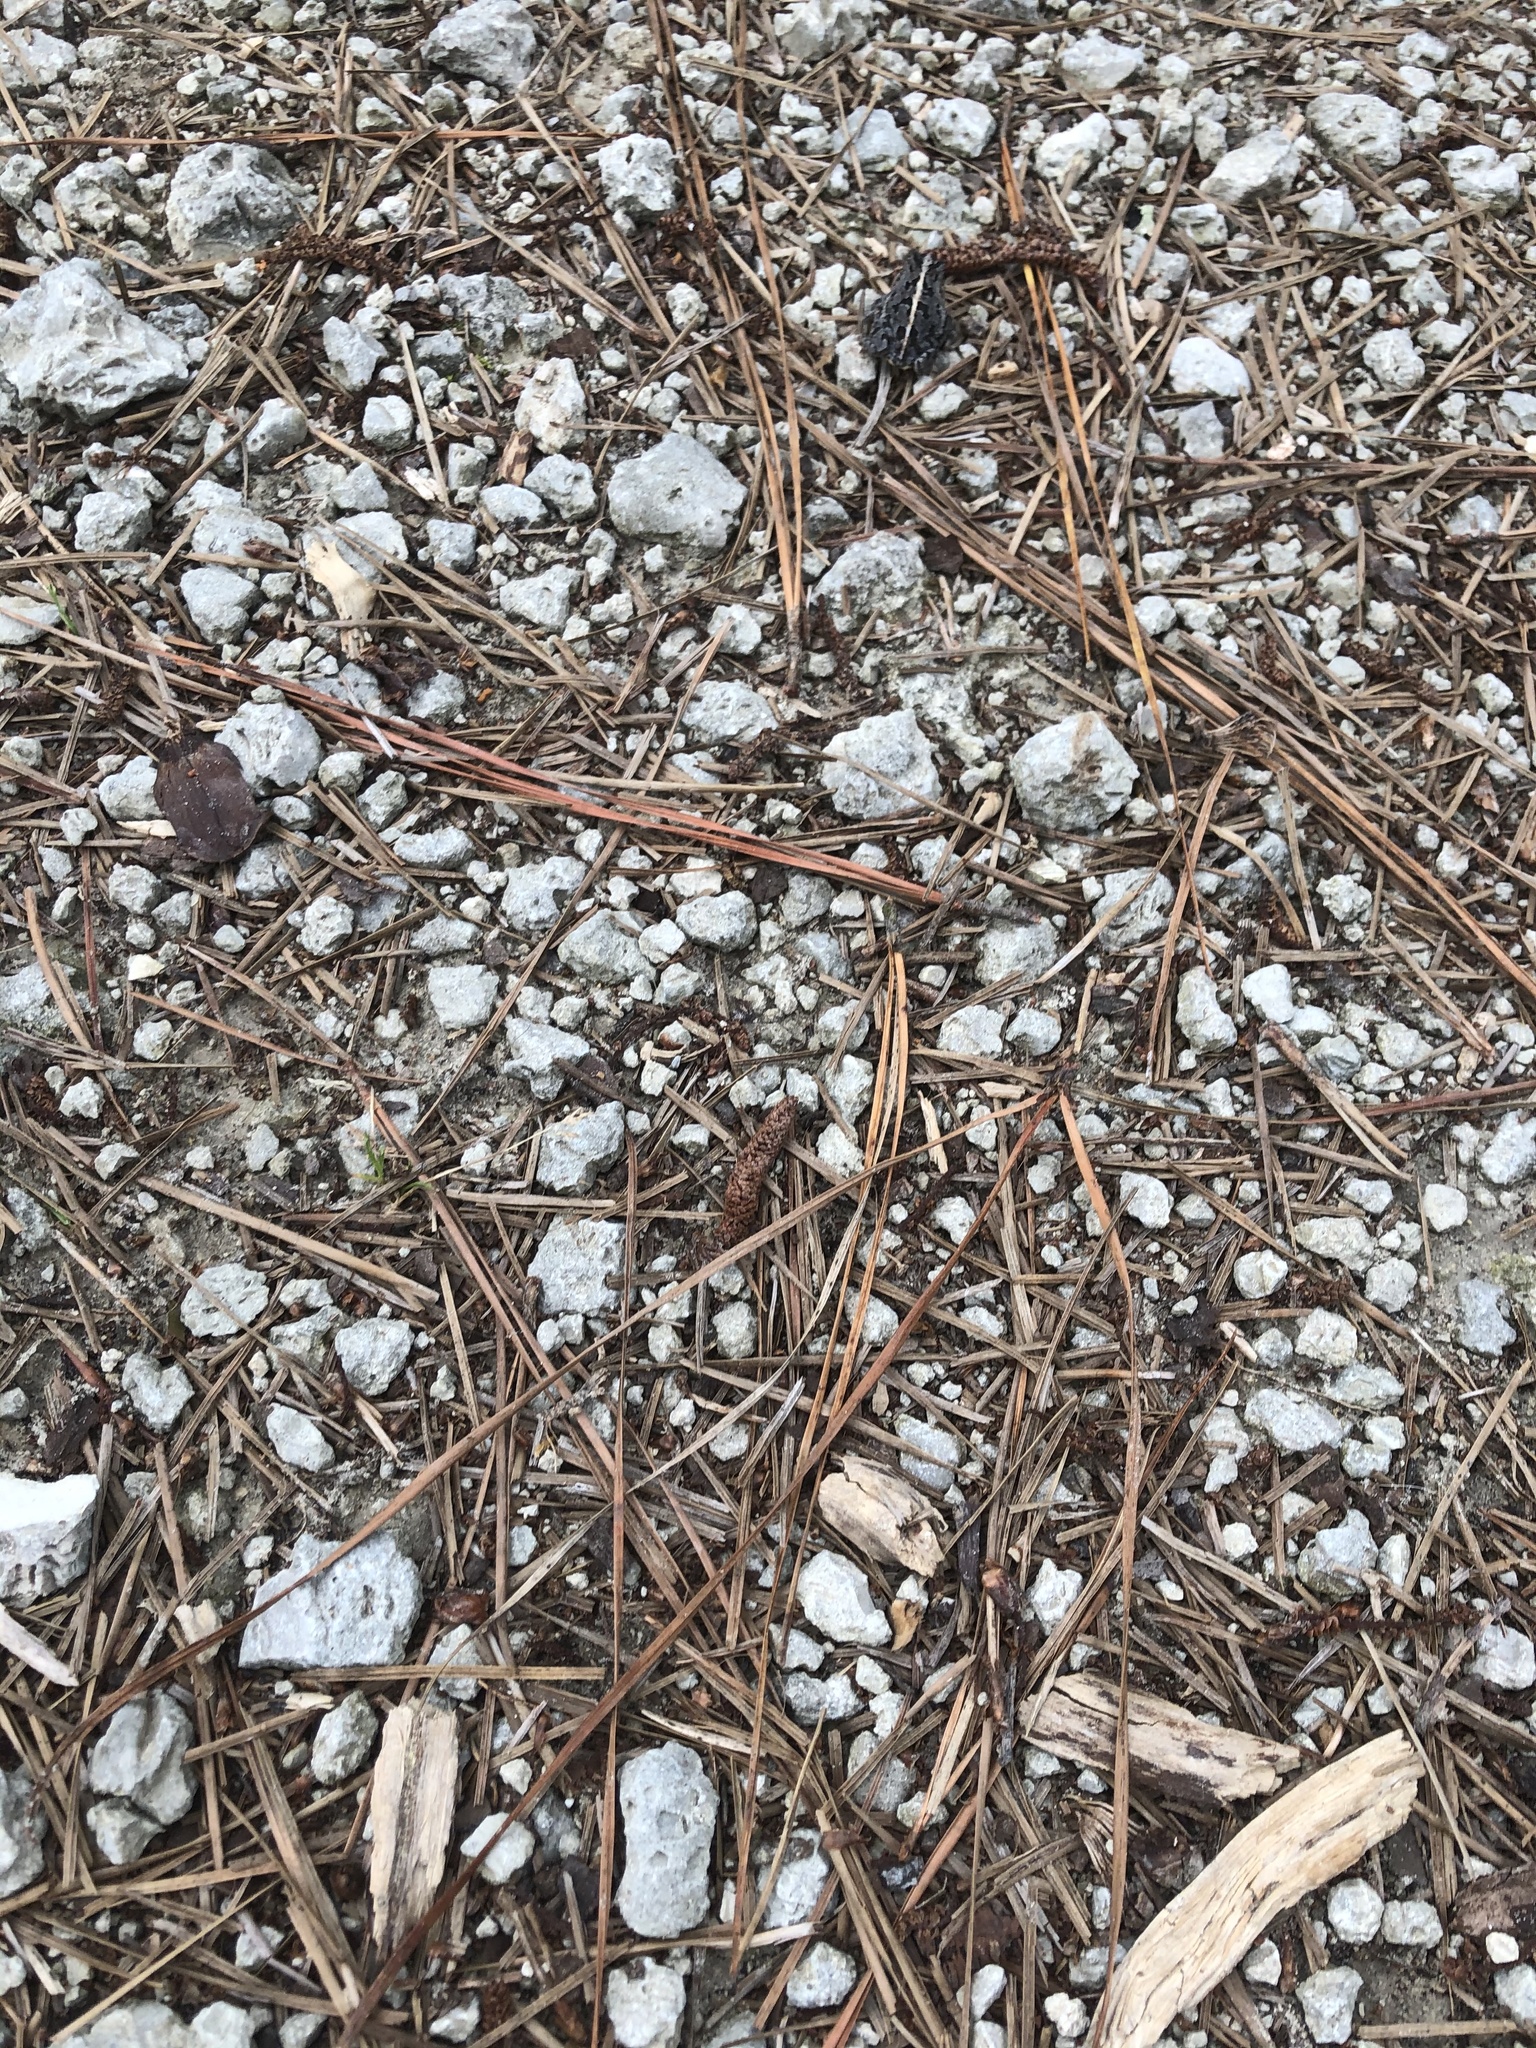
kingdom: Animalia
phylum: Chordata
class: Amphibia
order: Anura
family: Bufonidae
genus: Anaxyrus
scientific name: Anaxyrus quercicus
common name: Oak toad
